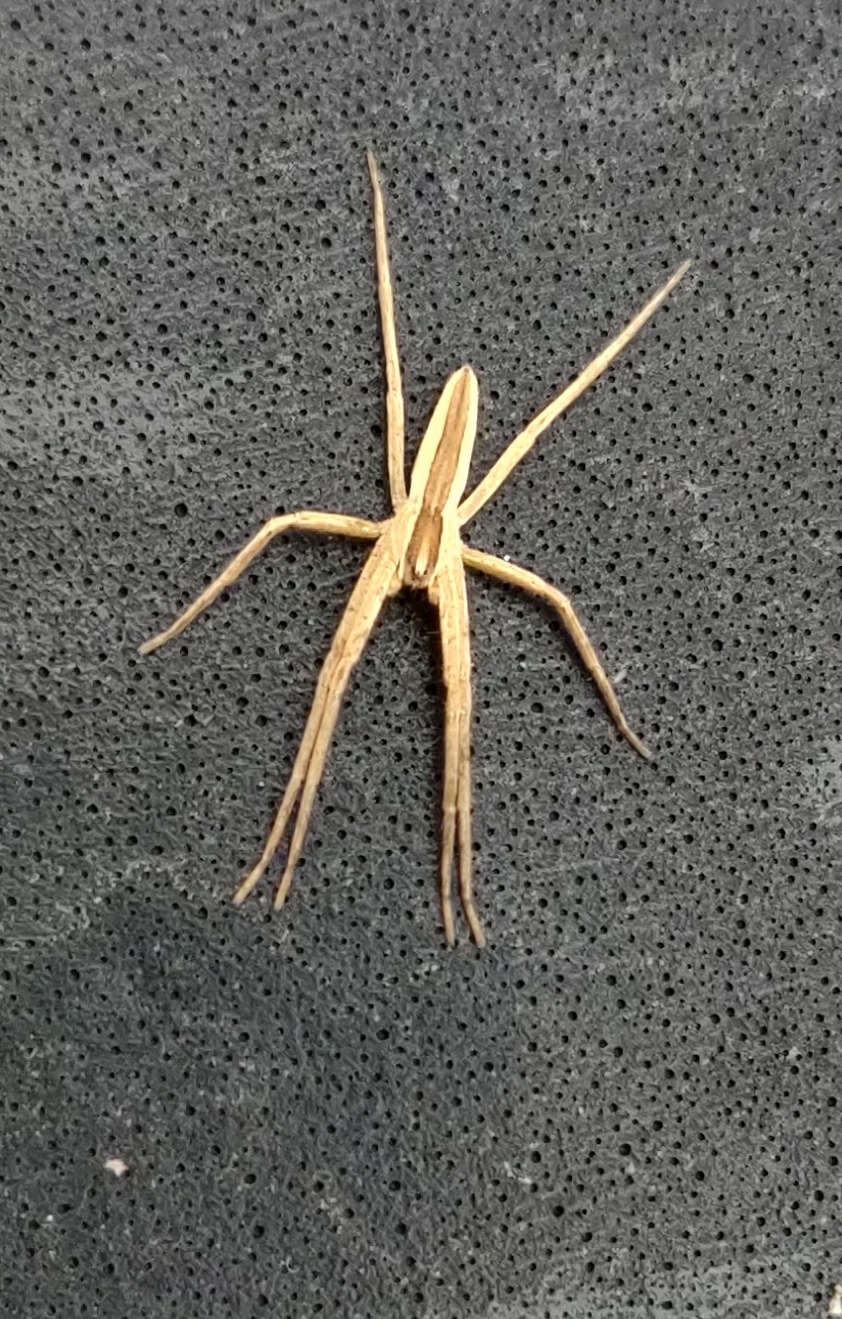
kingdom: Animalia
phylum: Arthropoda
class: Arachnida
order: Araneae
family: Pisauridae
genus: Pisaurina
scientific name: Pisaurina dubia
